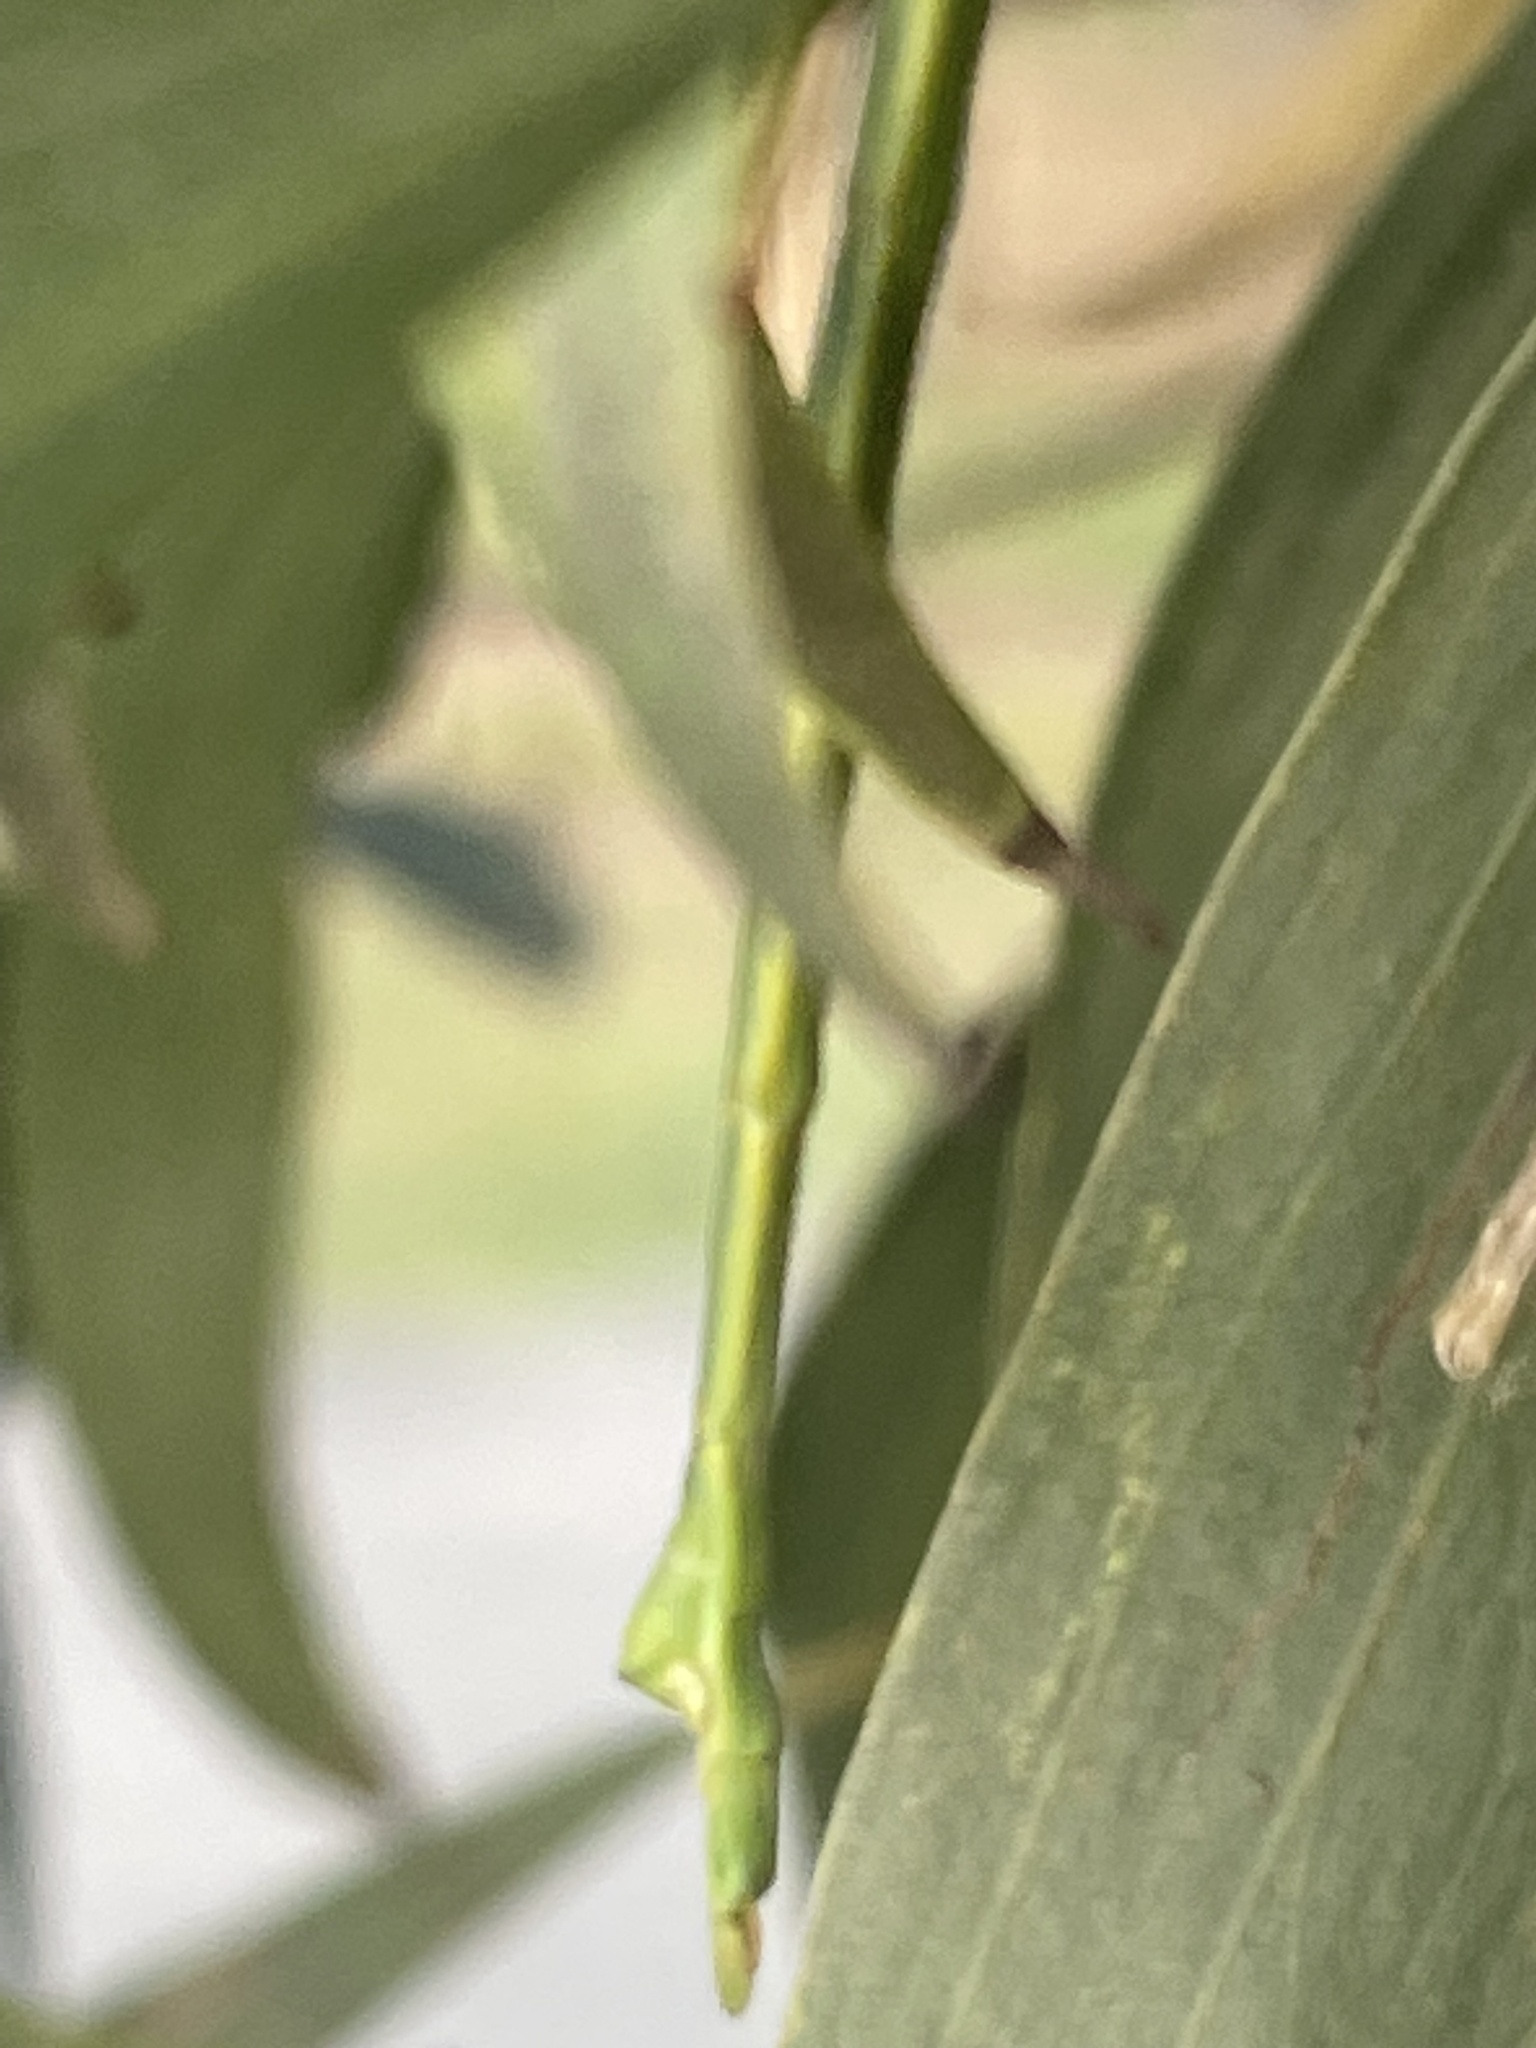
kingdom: Animalia
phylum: Arthropoda
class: Insecta
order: Phasmida
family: Phasmatidae
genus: Anchiale
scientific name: Anchiale austrotessulata
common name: Tessellated stick-insect
